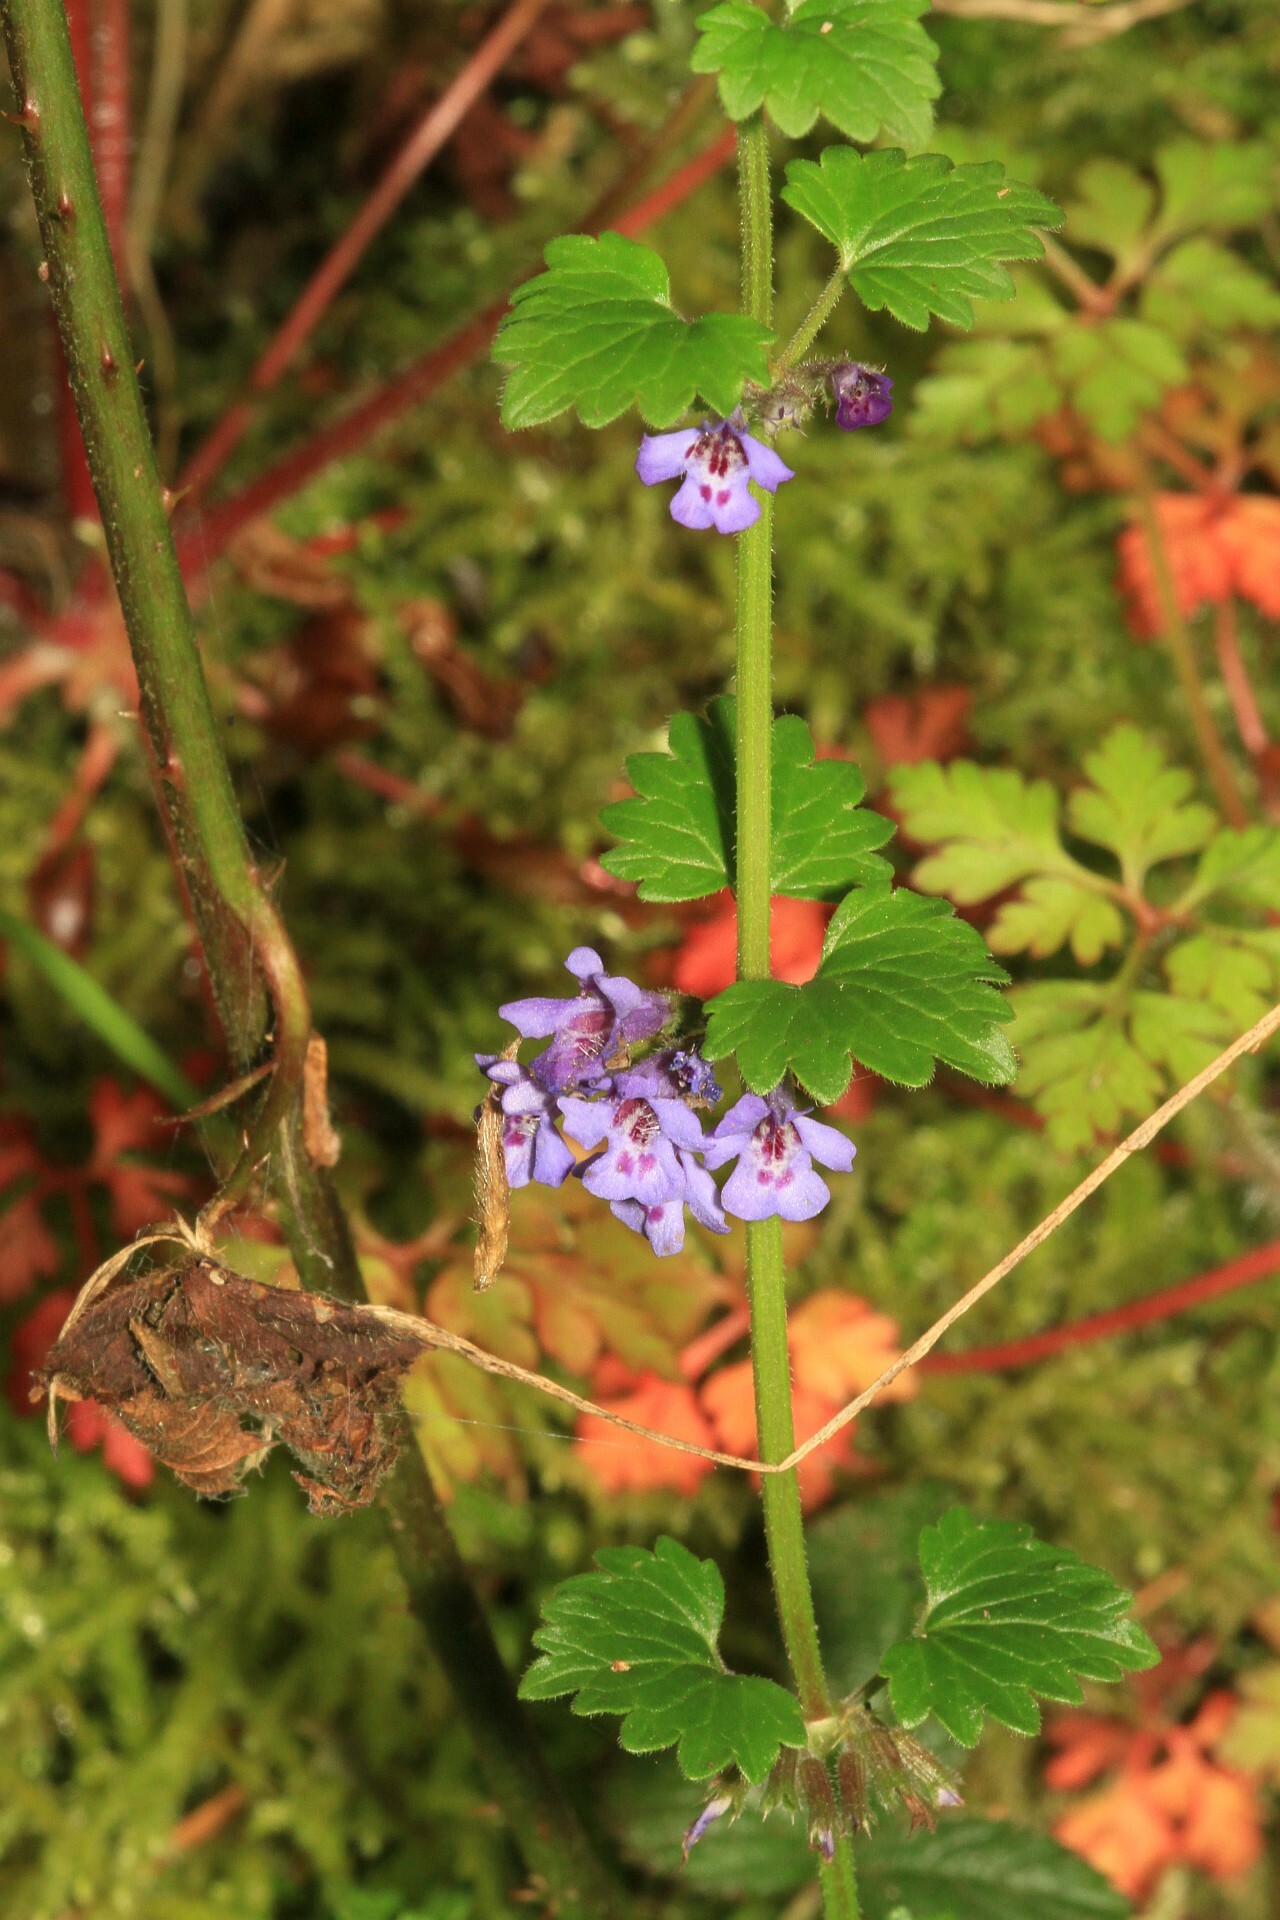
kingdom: Plantae
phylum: Tracheophyta
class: Magnoliopsida
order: Lamiales
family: Lamiaceae
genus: Glechoma
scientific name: Glechoma hederacea
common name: Ground ivy
